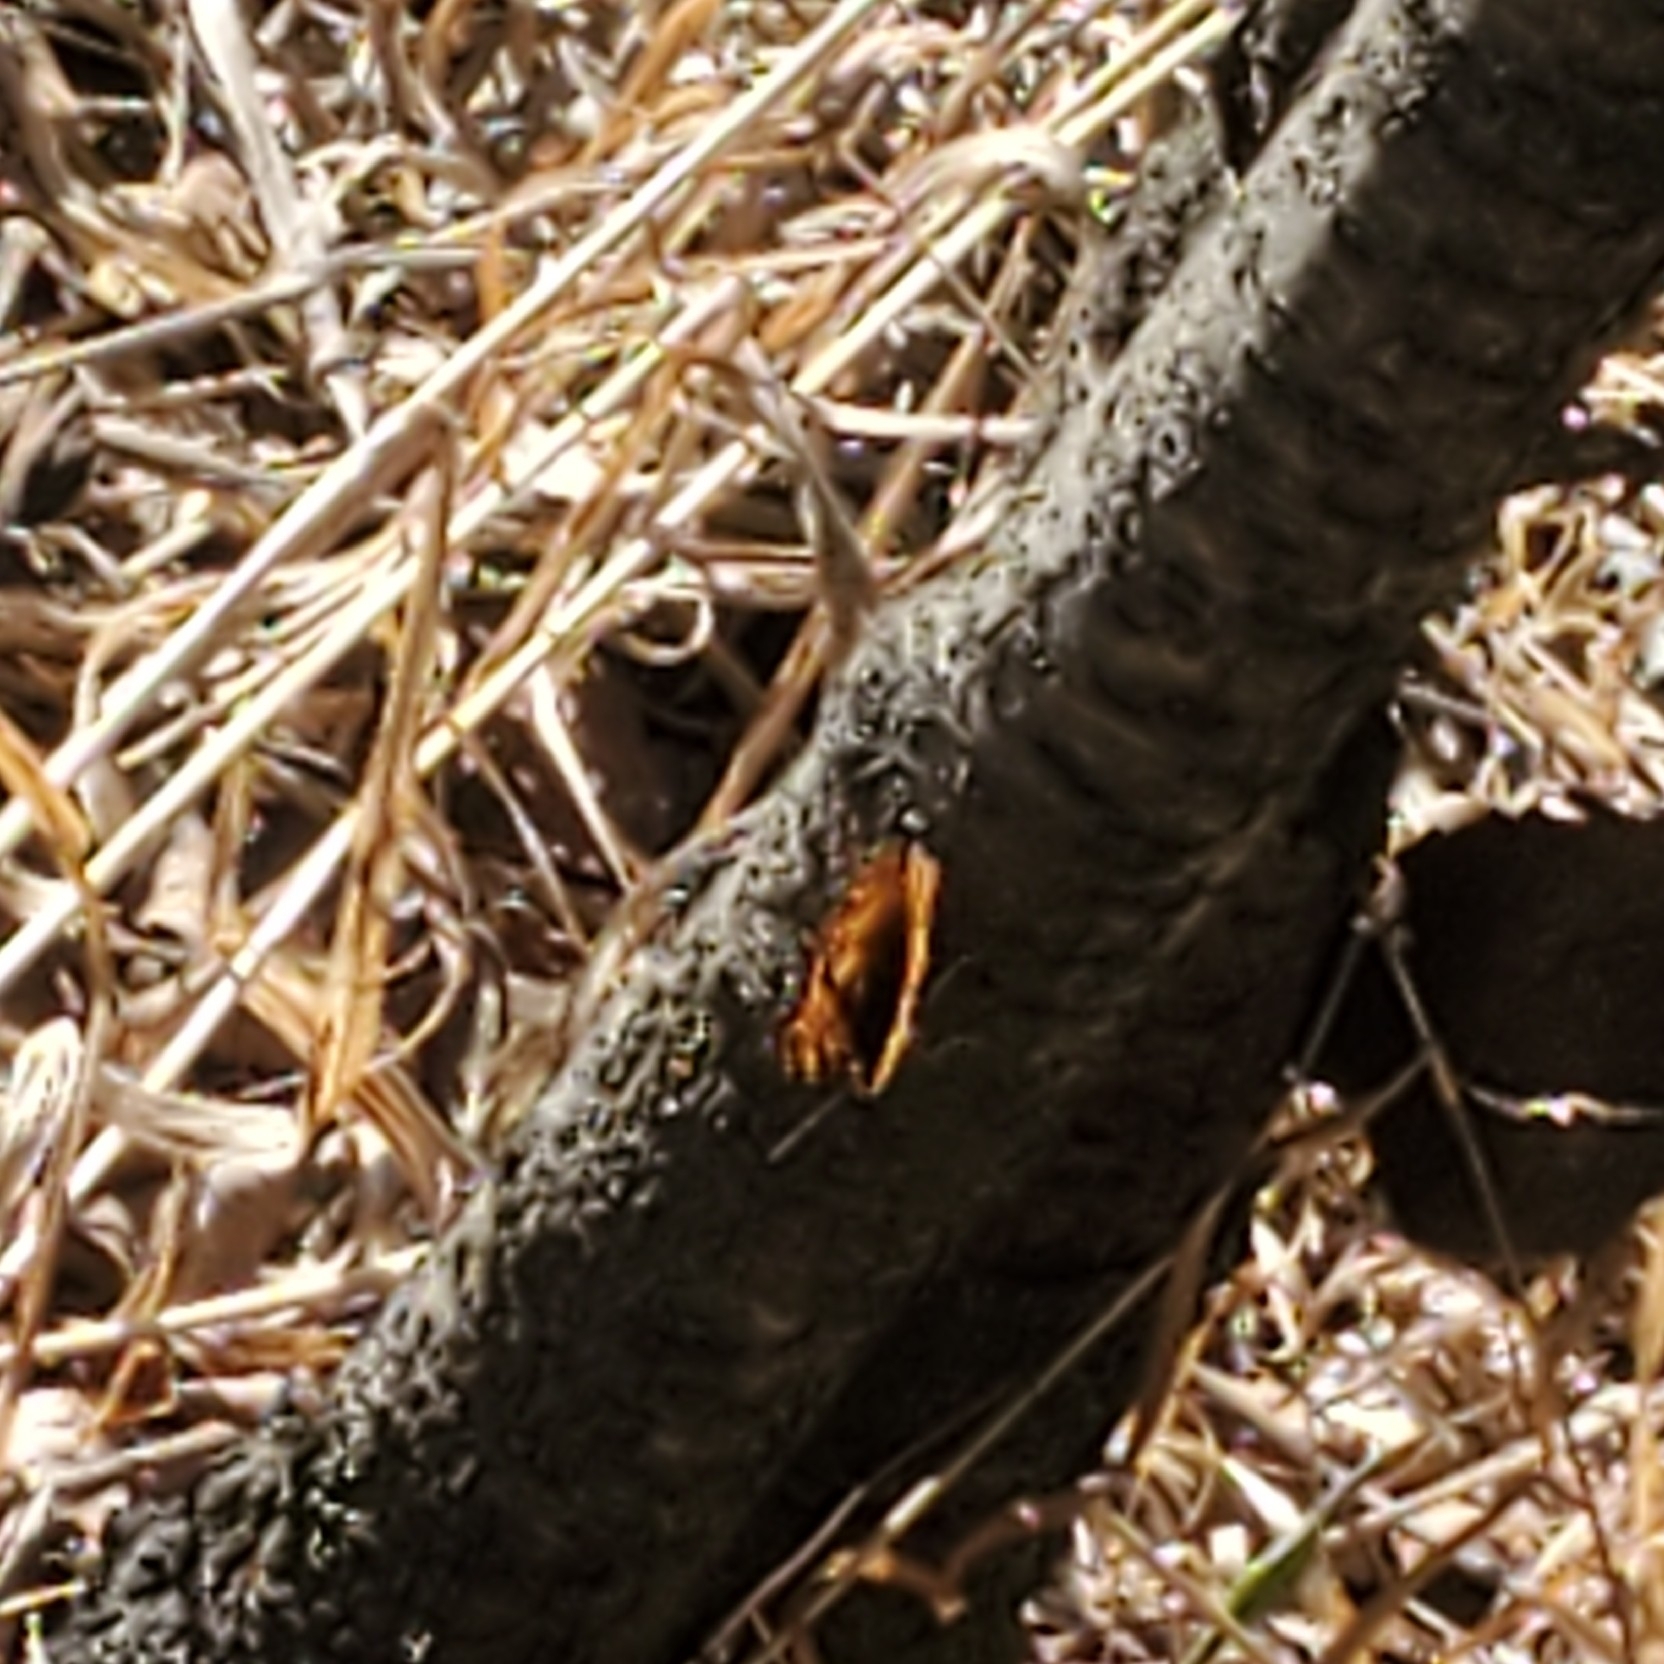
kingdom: Animalia
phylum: Arthropoda
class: Insecta
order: Lepidoptera
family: Nymphalidae
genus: Polygonia
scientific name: Polygonia satyrus
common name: Satyr angle wing
